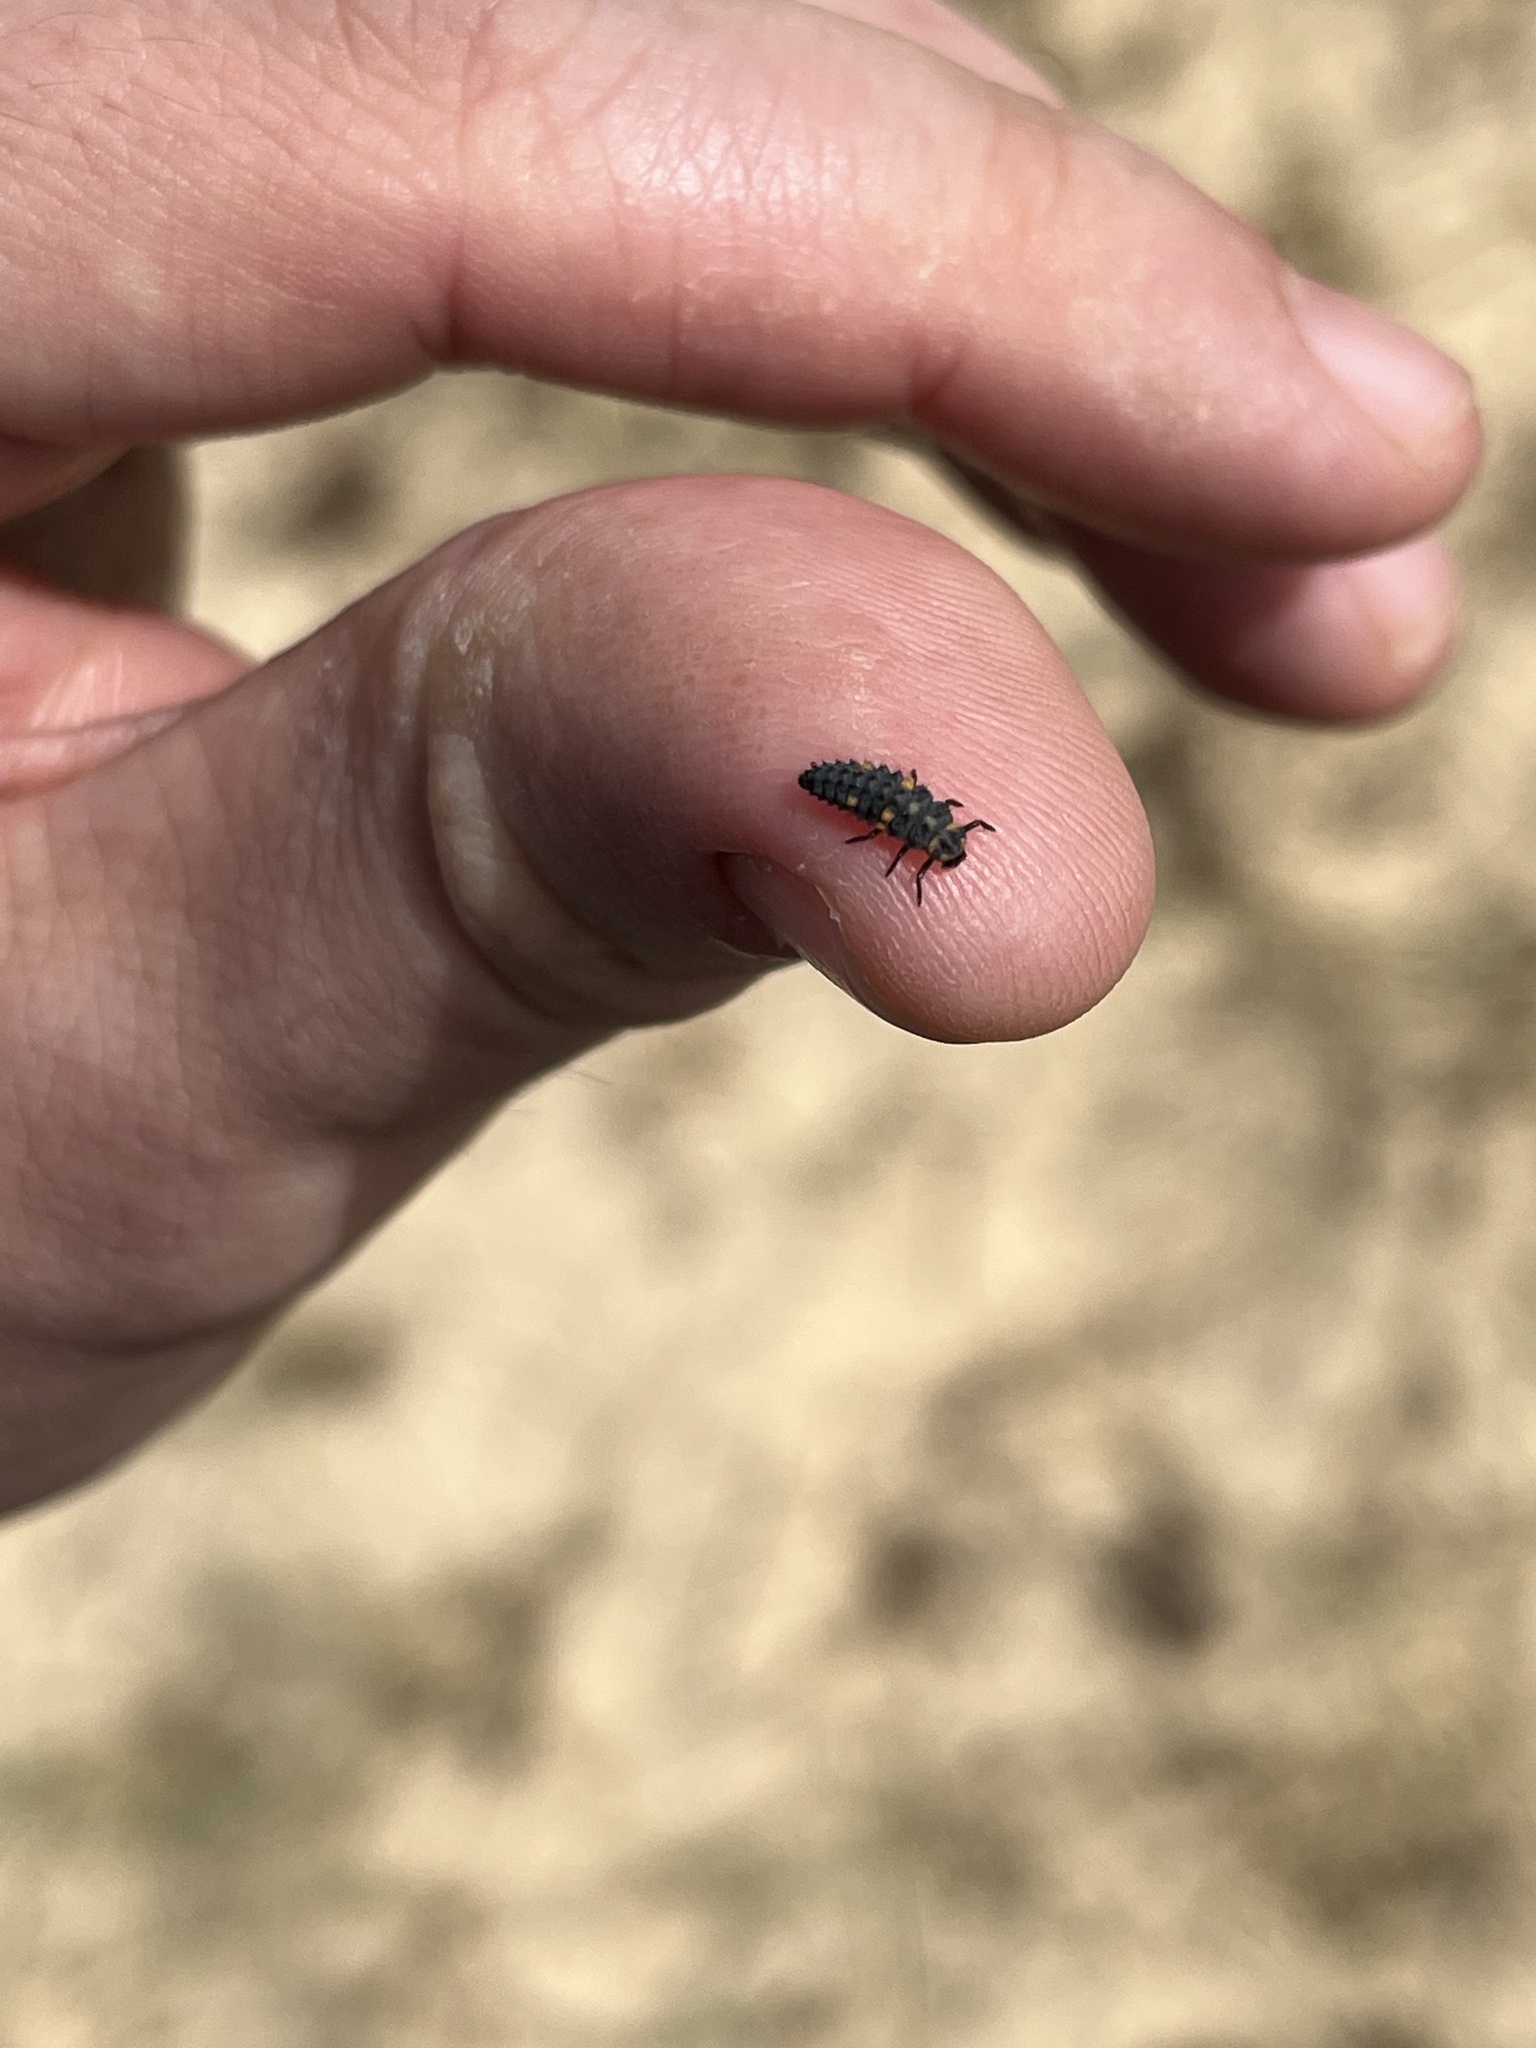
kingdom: Animalia
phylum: Arthropoda
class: Insecta
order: Coleoptera
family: Coccinellidae
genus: Coccinella
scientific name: Coccinella septempunctata
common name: Sevenspotted lady beetle
